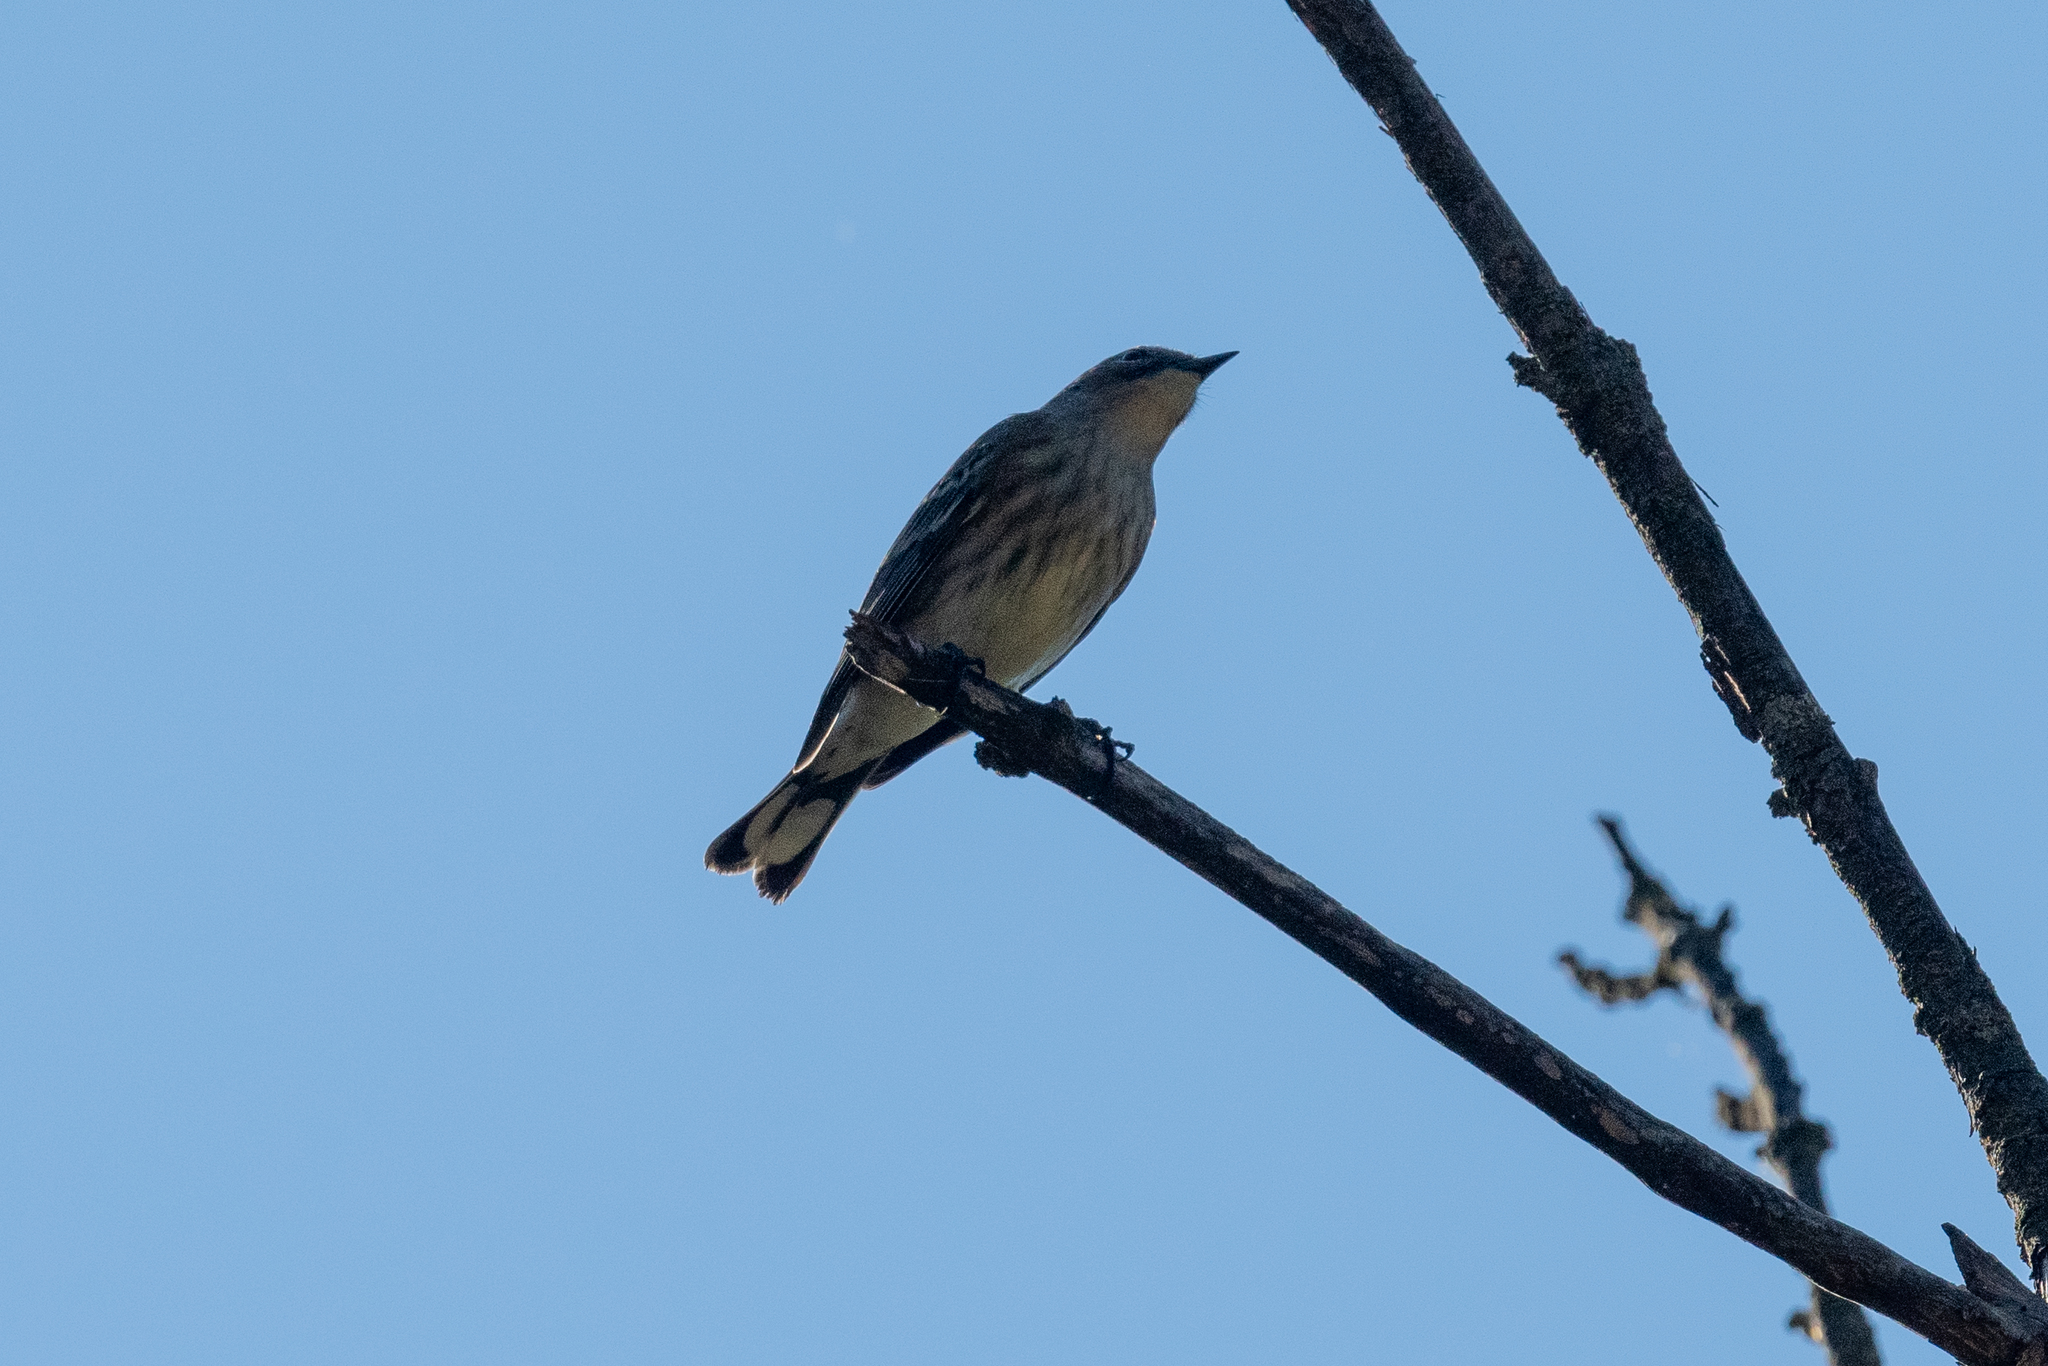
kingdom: Animalia
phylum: Chordata
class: Aves
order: Passeriformes
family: Parulidae
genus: Setophaga
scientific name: Setophaga coronata
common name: Myrtle warbler
